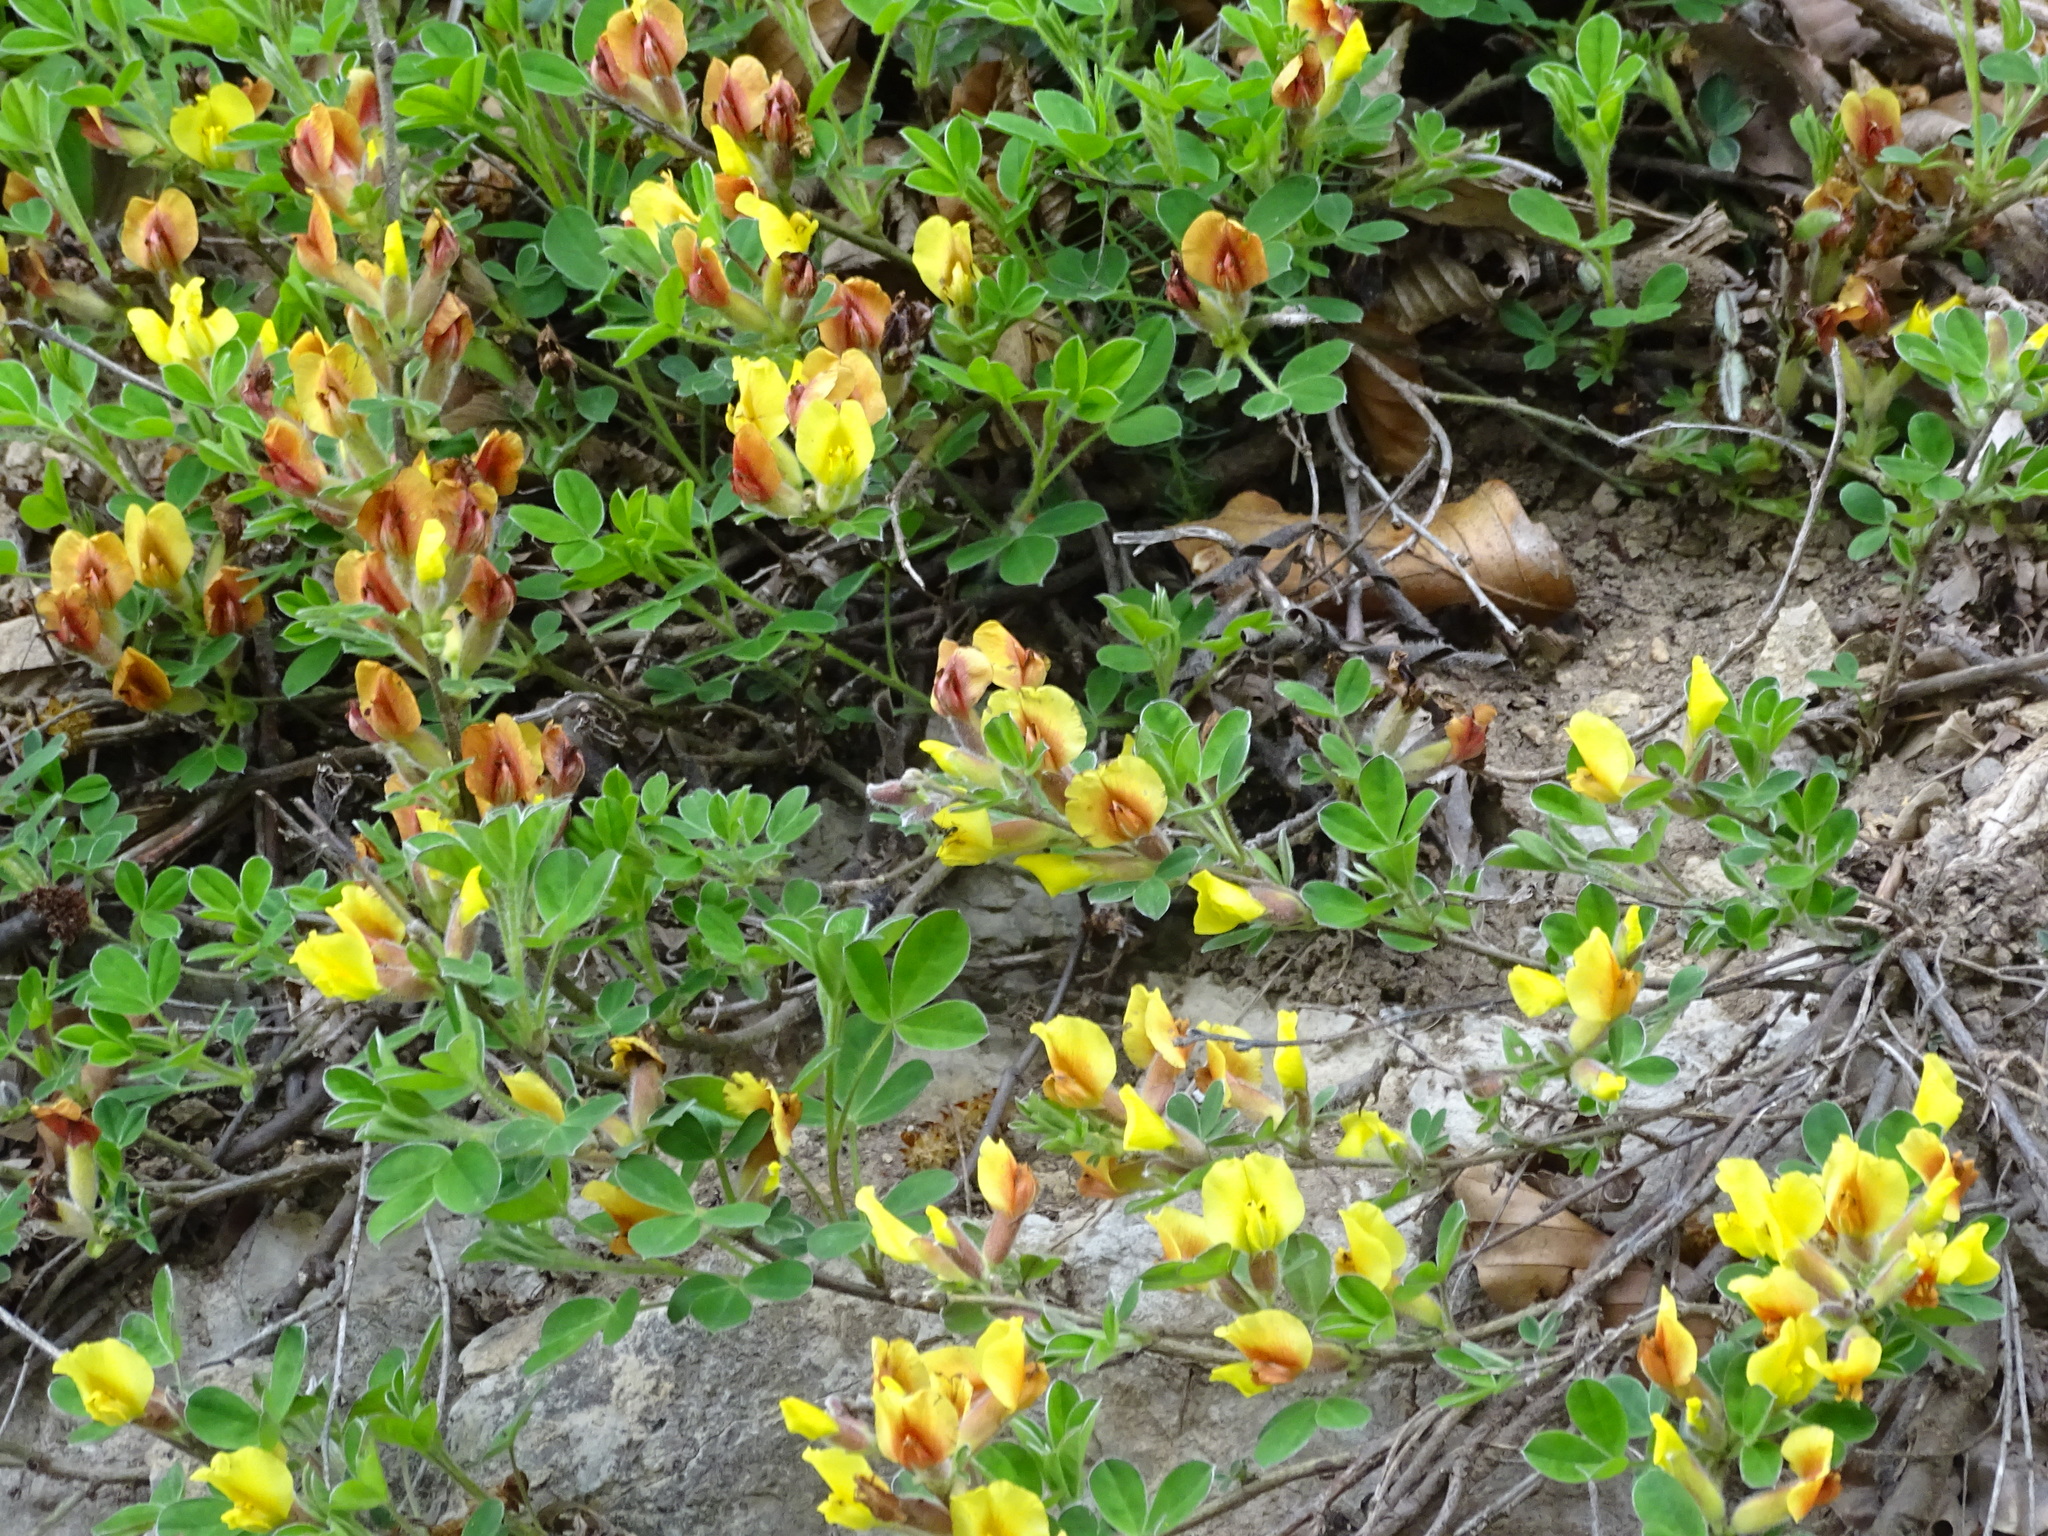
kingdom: Plantae
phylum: Tracheophyta
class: Magnoliopsida
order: Fabales
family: Fabaceae
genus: Chamaecytisus
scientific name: Chamaecytisus hirsutus
